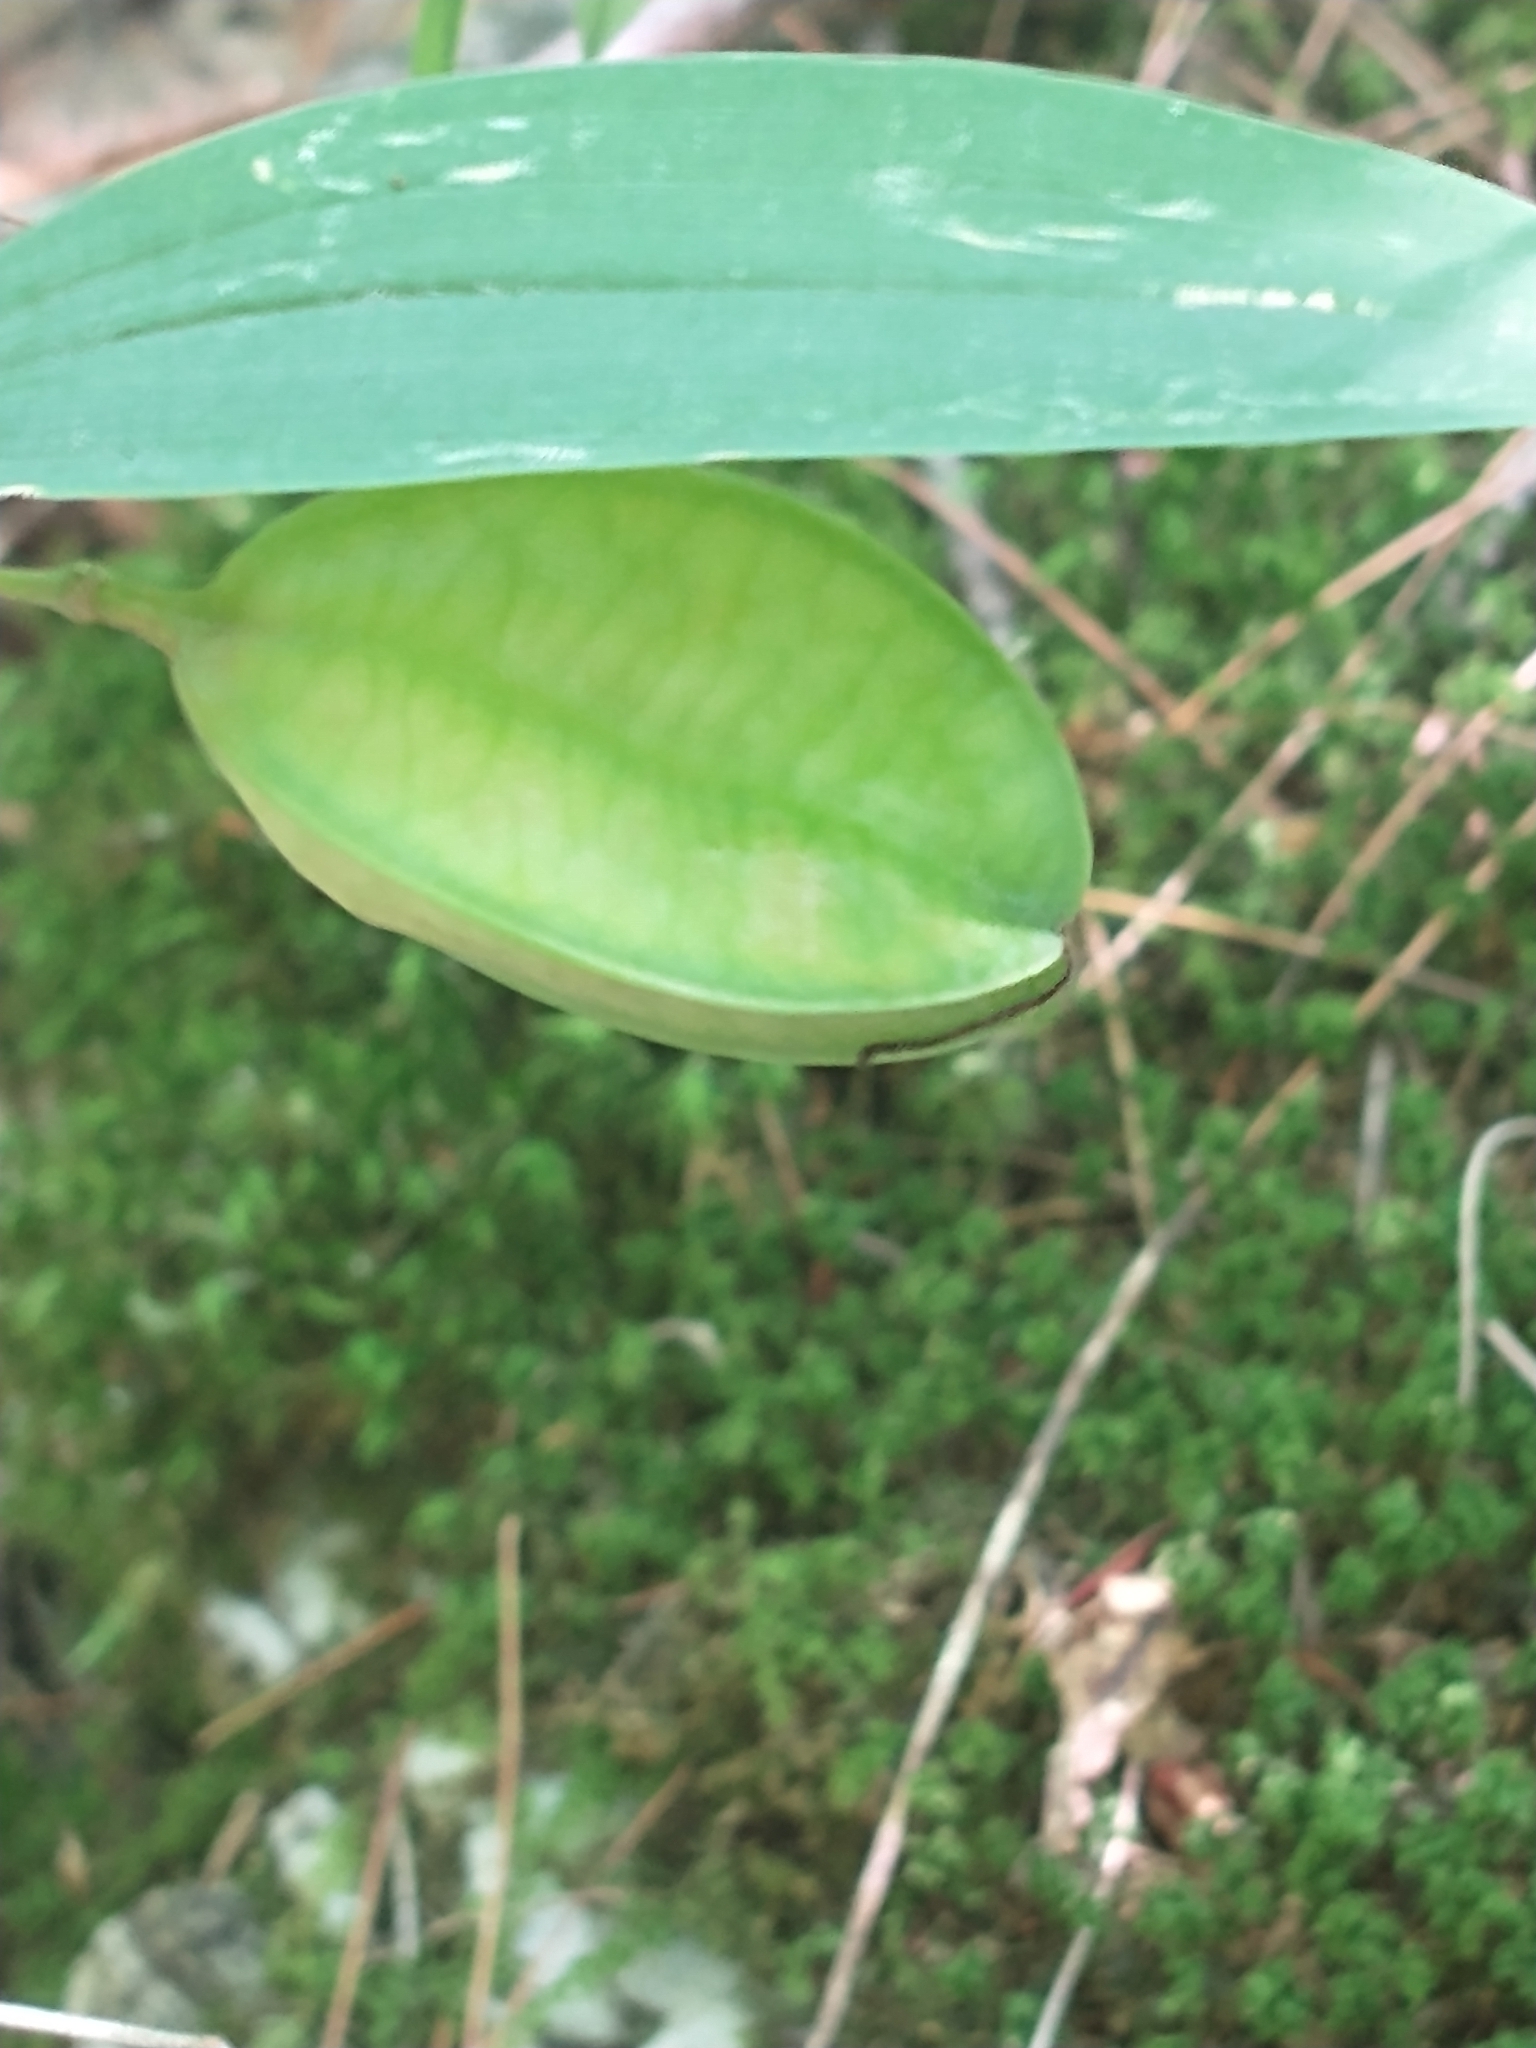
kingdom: Plantae
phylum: Tracheophyta
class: Liliopsida
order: Liliales
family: Colchicaceae
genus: Uvularia
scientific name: Uvularia sessilifolia
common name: Straw-lily
